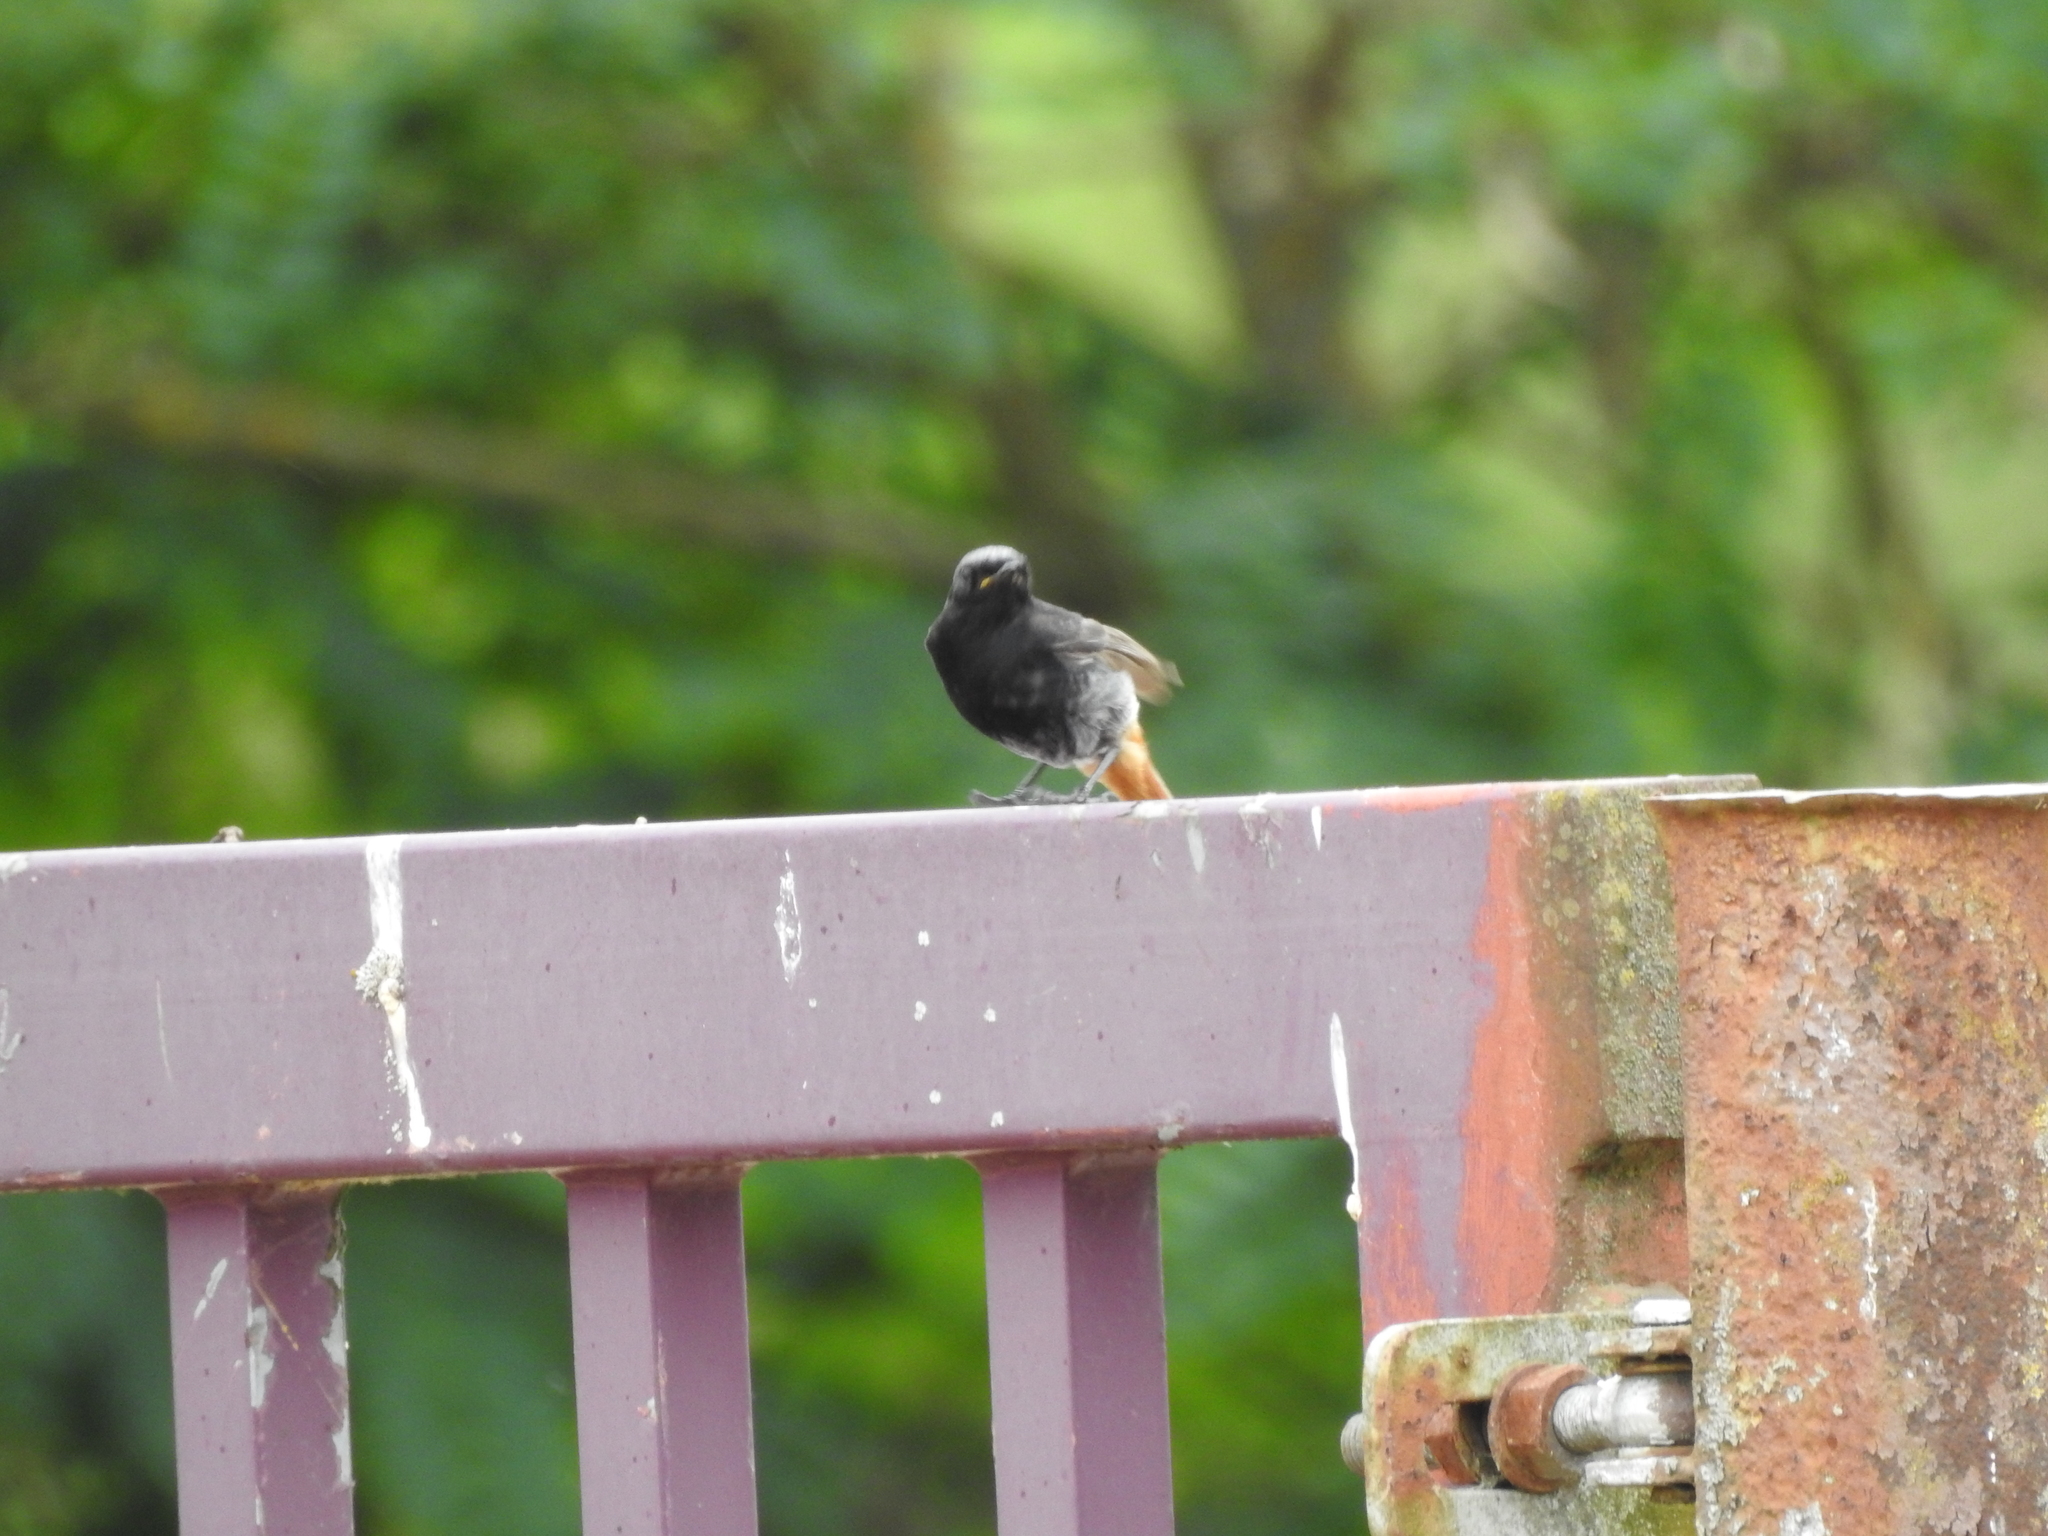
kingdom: Animalia
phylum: Chordata
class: Aves
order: Passeriformes
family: Muscicapidae
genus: Phoenicurus
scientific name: Phoenicurus ochruros
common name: Black redstart
